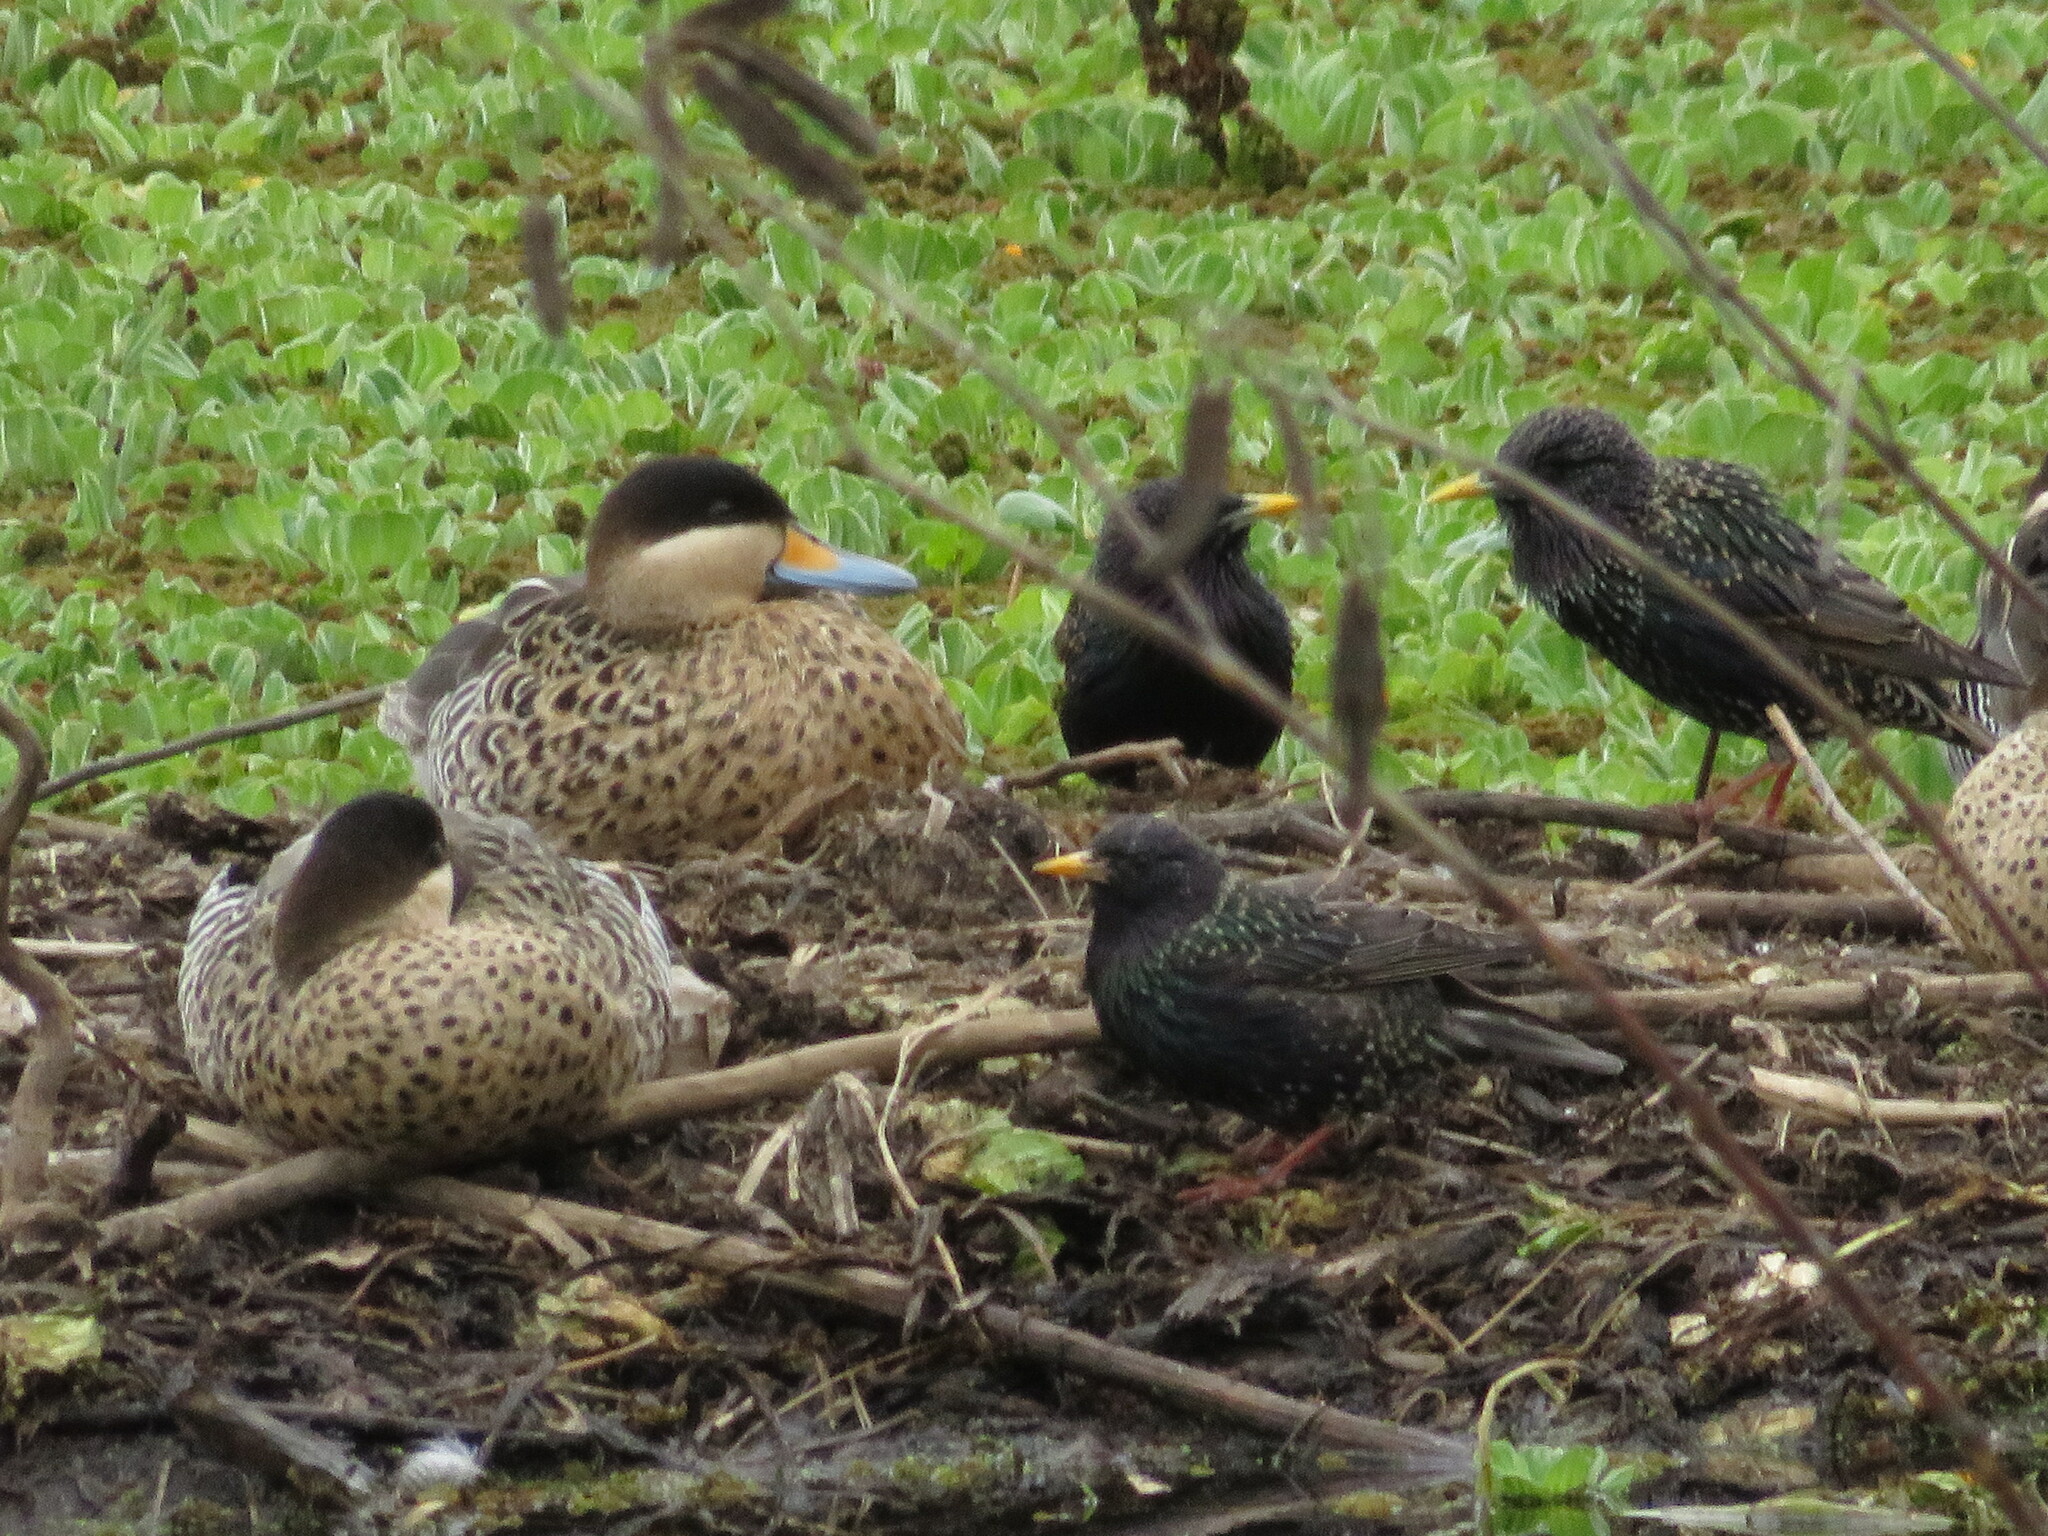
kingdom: Animalia
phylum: Chordata
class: Aves
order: Passeriformes
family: Sturnidae
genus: Sturnus
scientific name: Sturnus vulgaris
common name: Common starling
